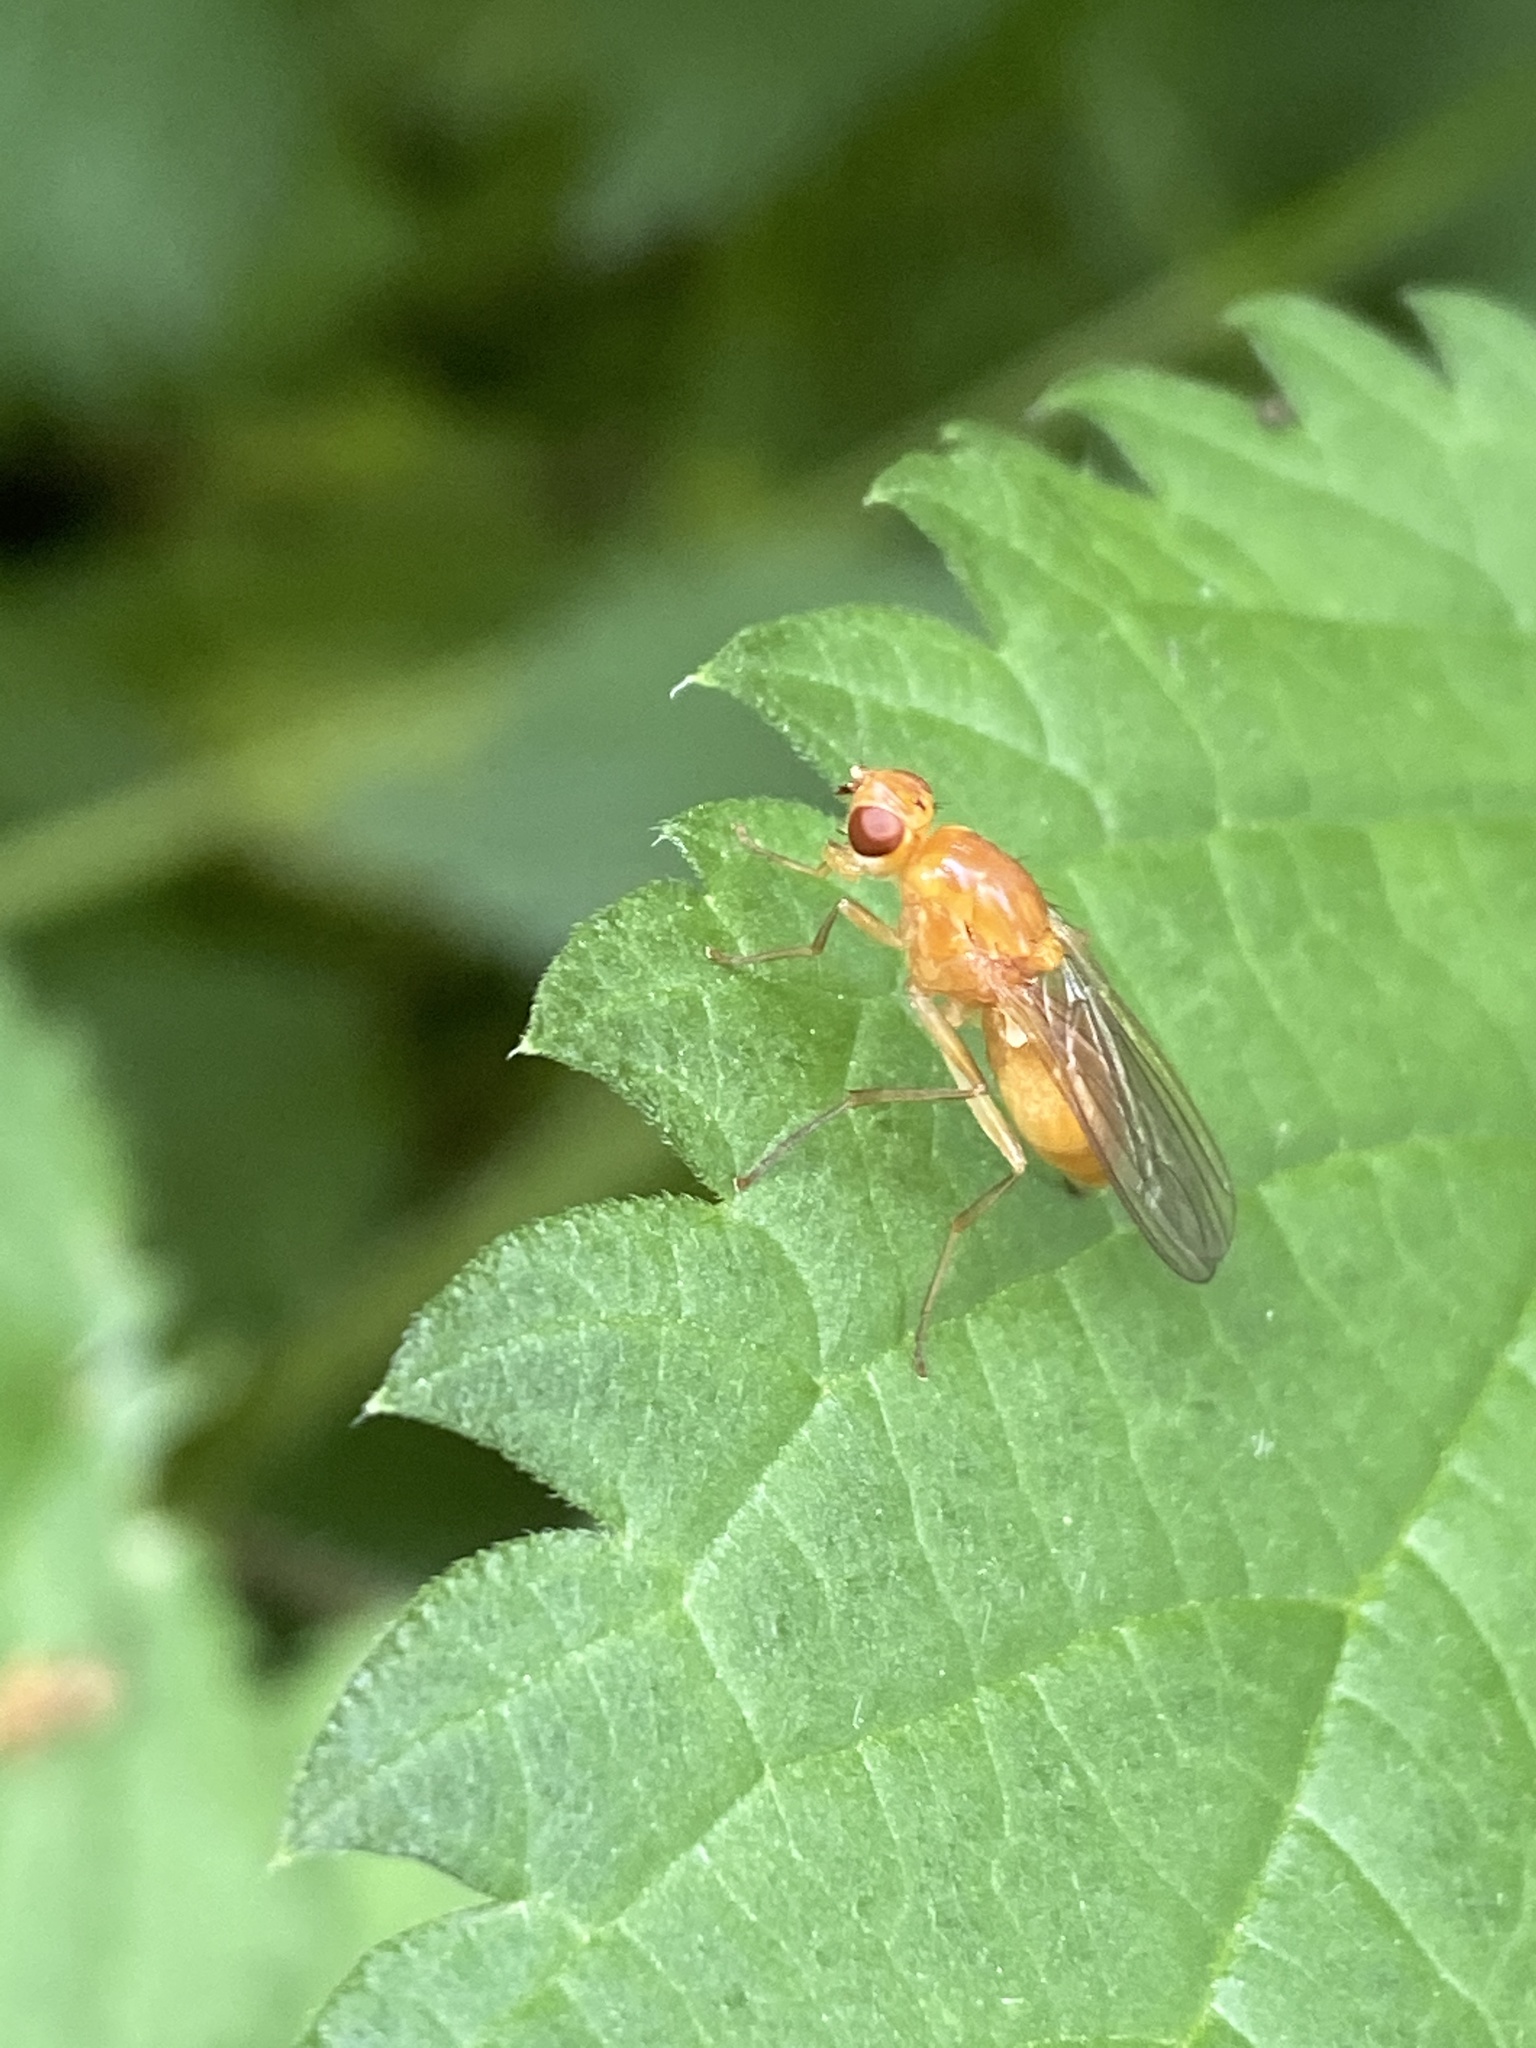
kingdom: Animalia
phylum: Arthropoda
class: Insecta
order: Diptera
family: Psilidae
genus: Psila
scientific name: Psila fimetaria
